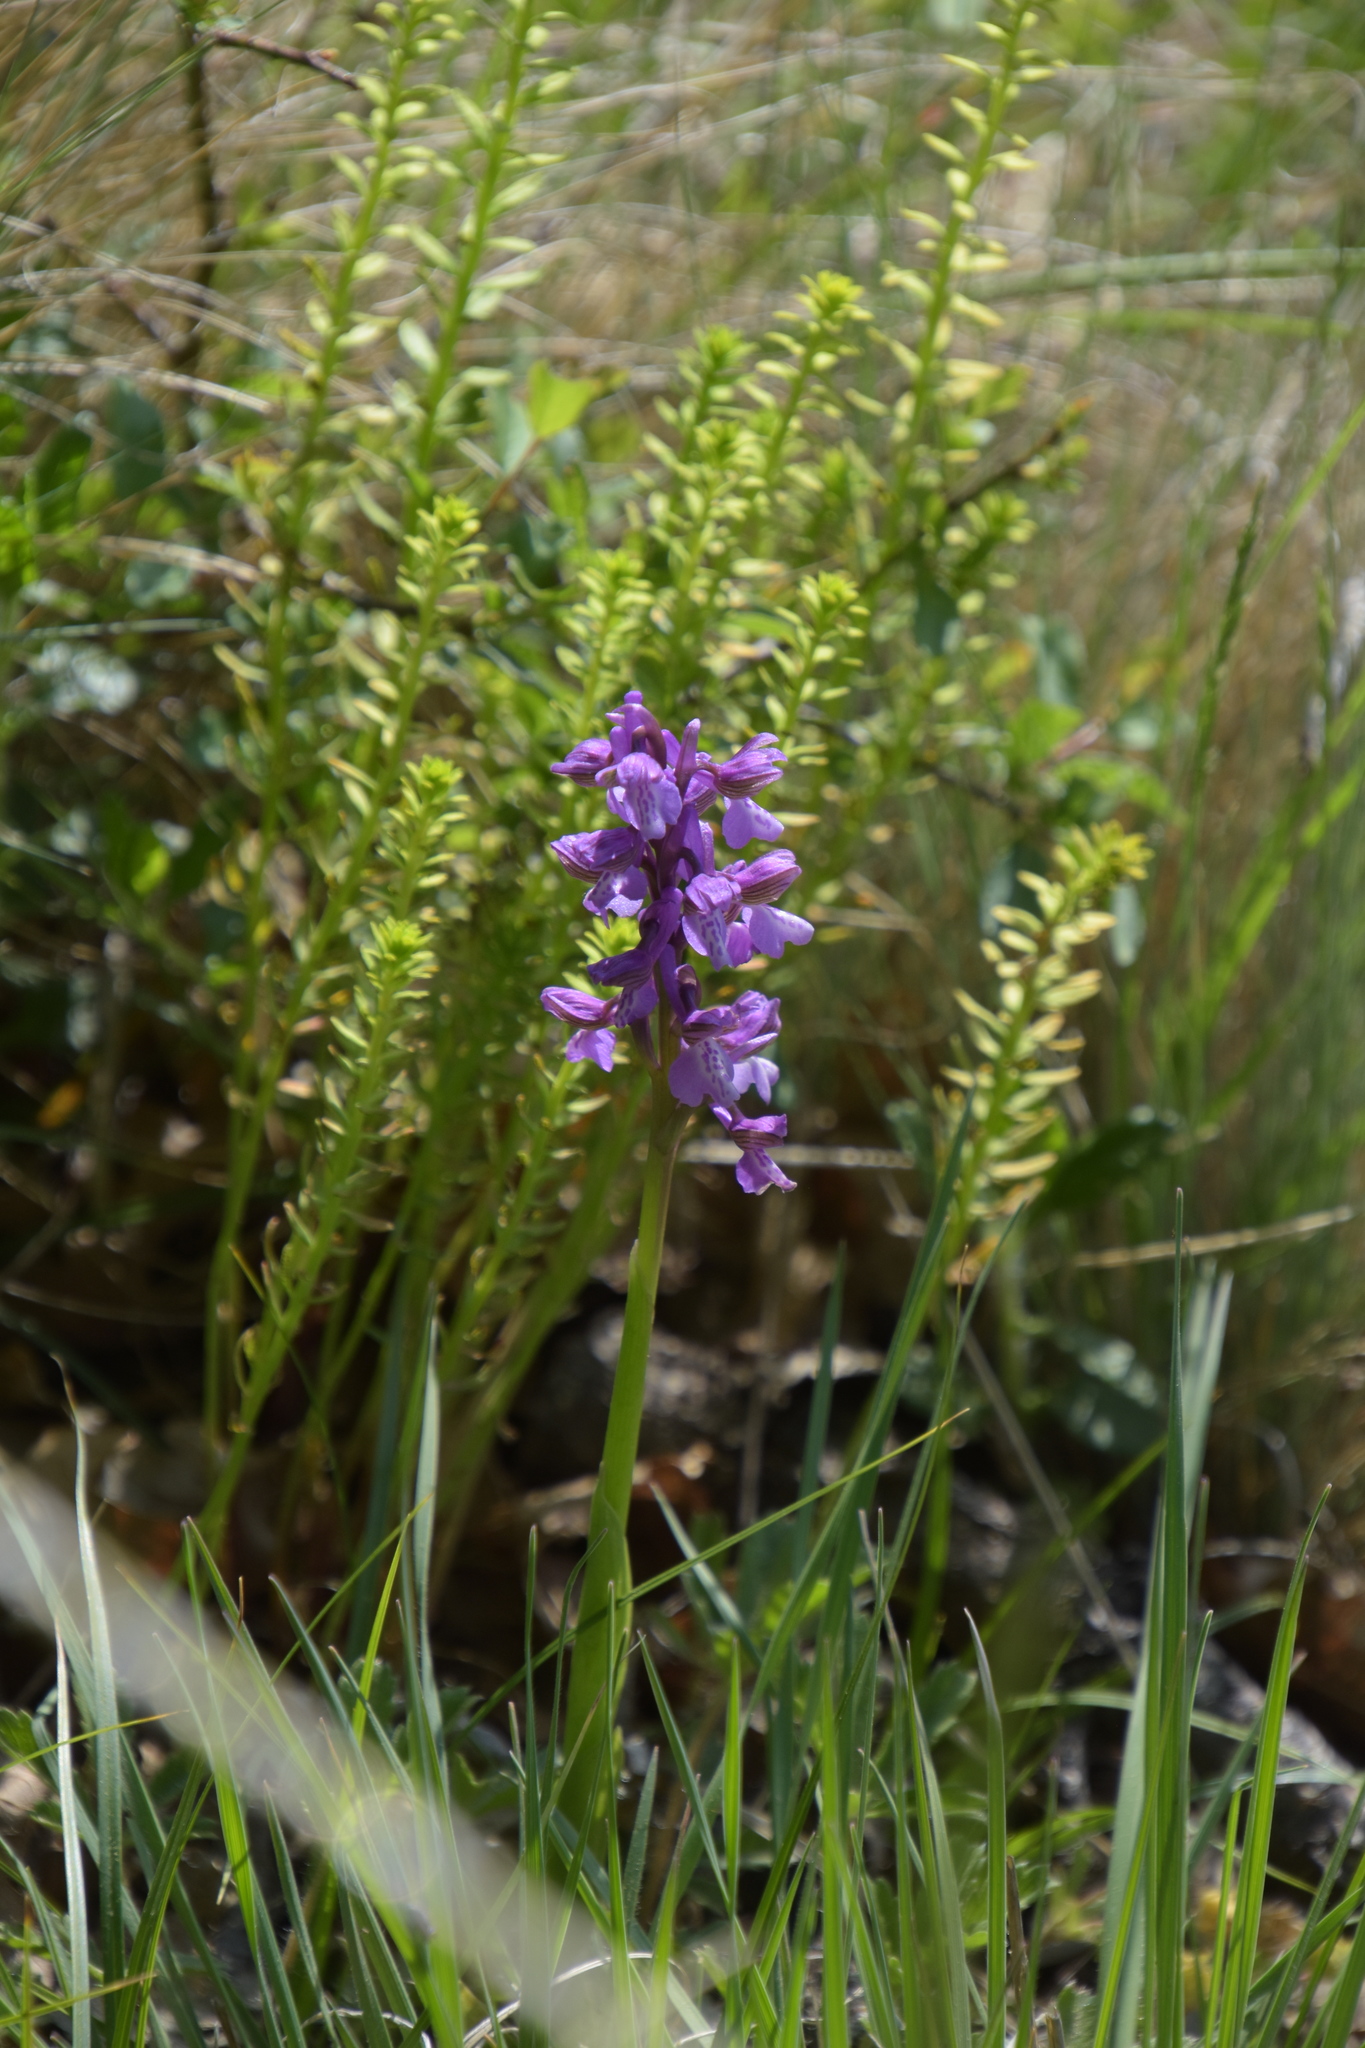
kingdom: Plantae
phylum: Tracheophyta
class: Liliopsida
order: Asparagales
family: Orchidaceae
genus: Anacamptis
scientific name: Anacamptis morio
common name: Green-winged orchid
